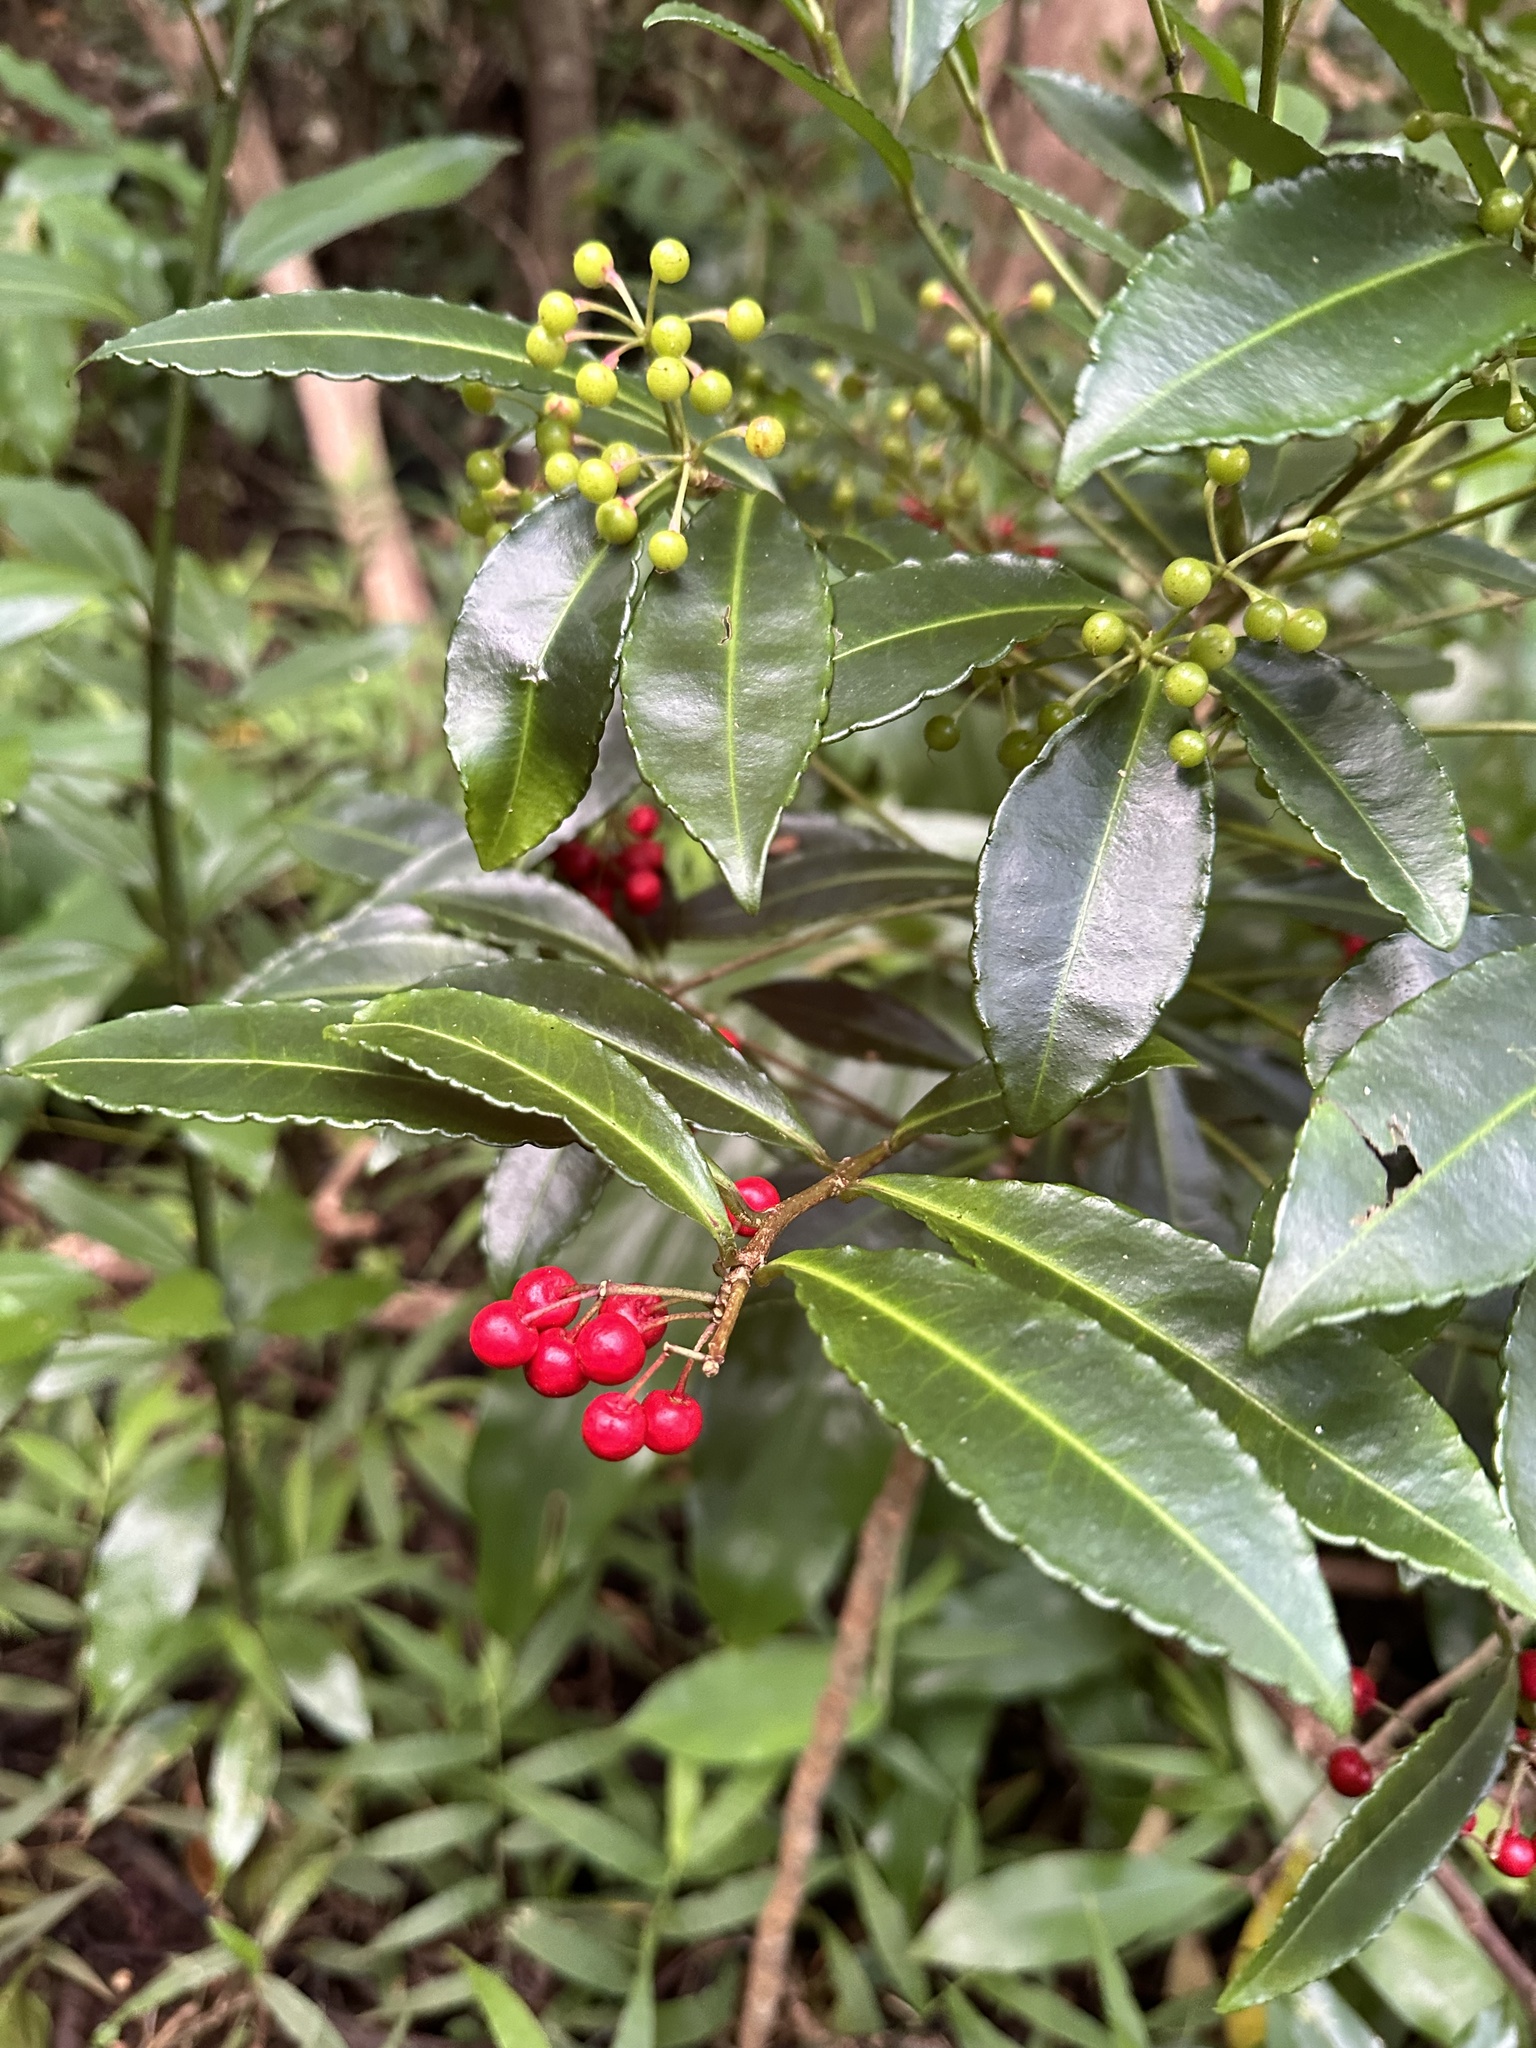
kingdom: Plantae
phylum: Tracheophyta
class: Magnoliopsida
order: Ericales
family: Primulaceae
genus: Ardisia
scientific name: Ardisia crenata
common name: Hen's eyes
